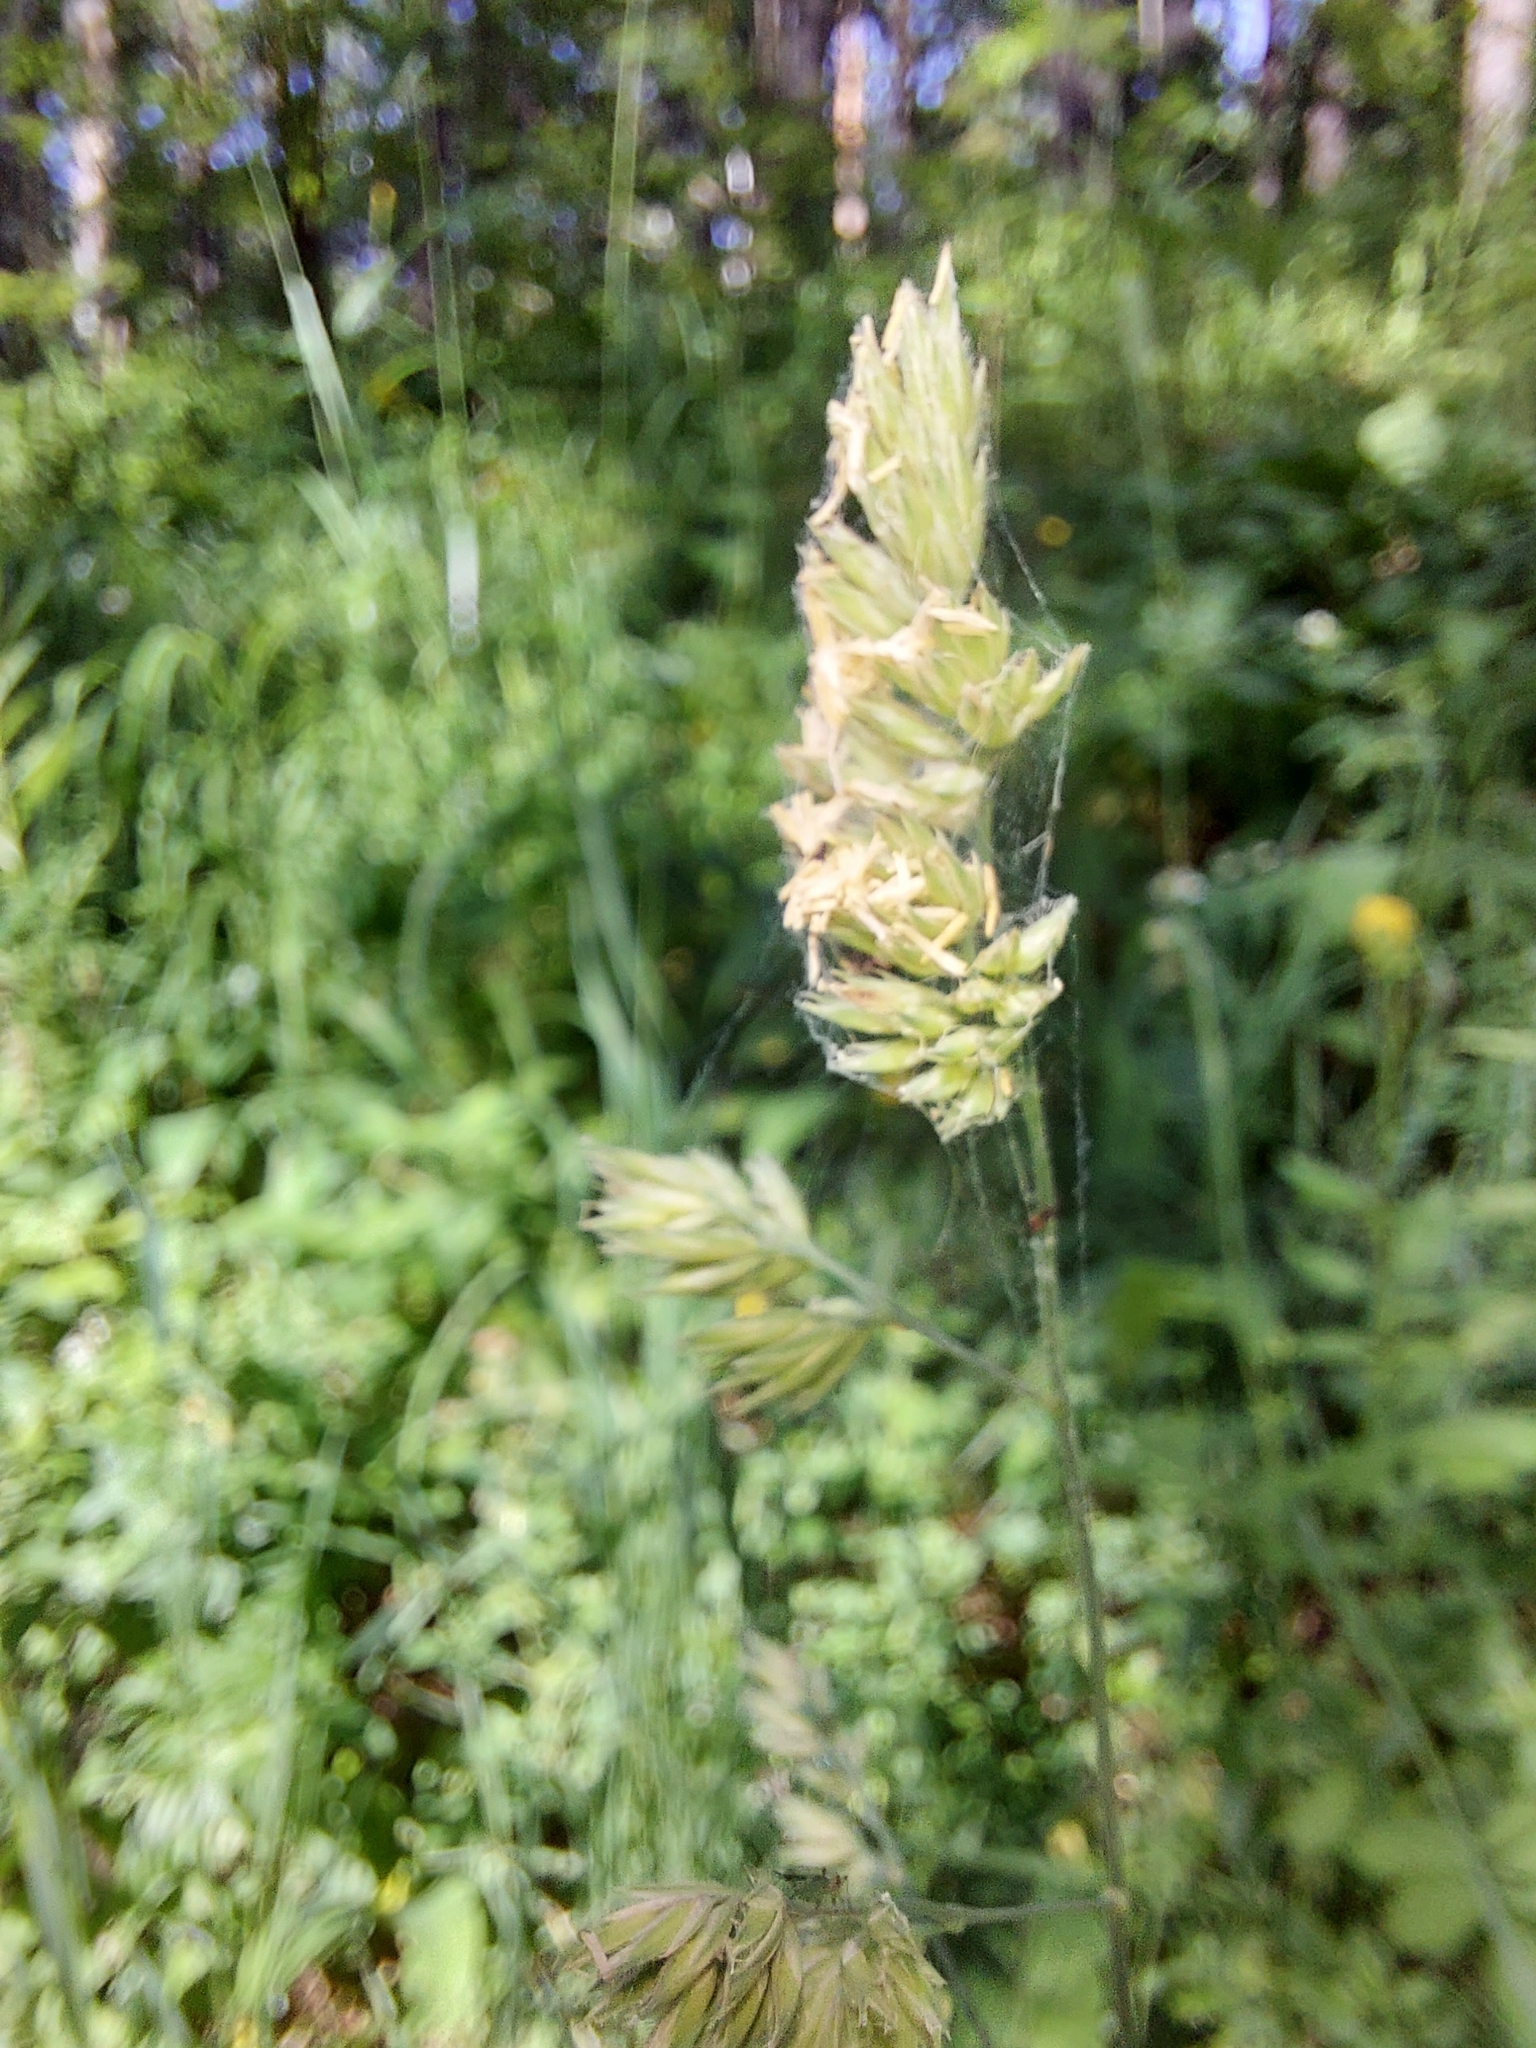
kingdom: Plantae
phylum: Tracheophyta
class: Liliopsida
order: Poales
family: Poaceae
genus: Dactylis
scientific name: Dactylis glomerata
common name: Orchardgrass
